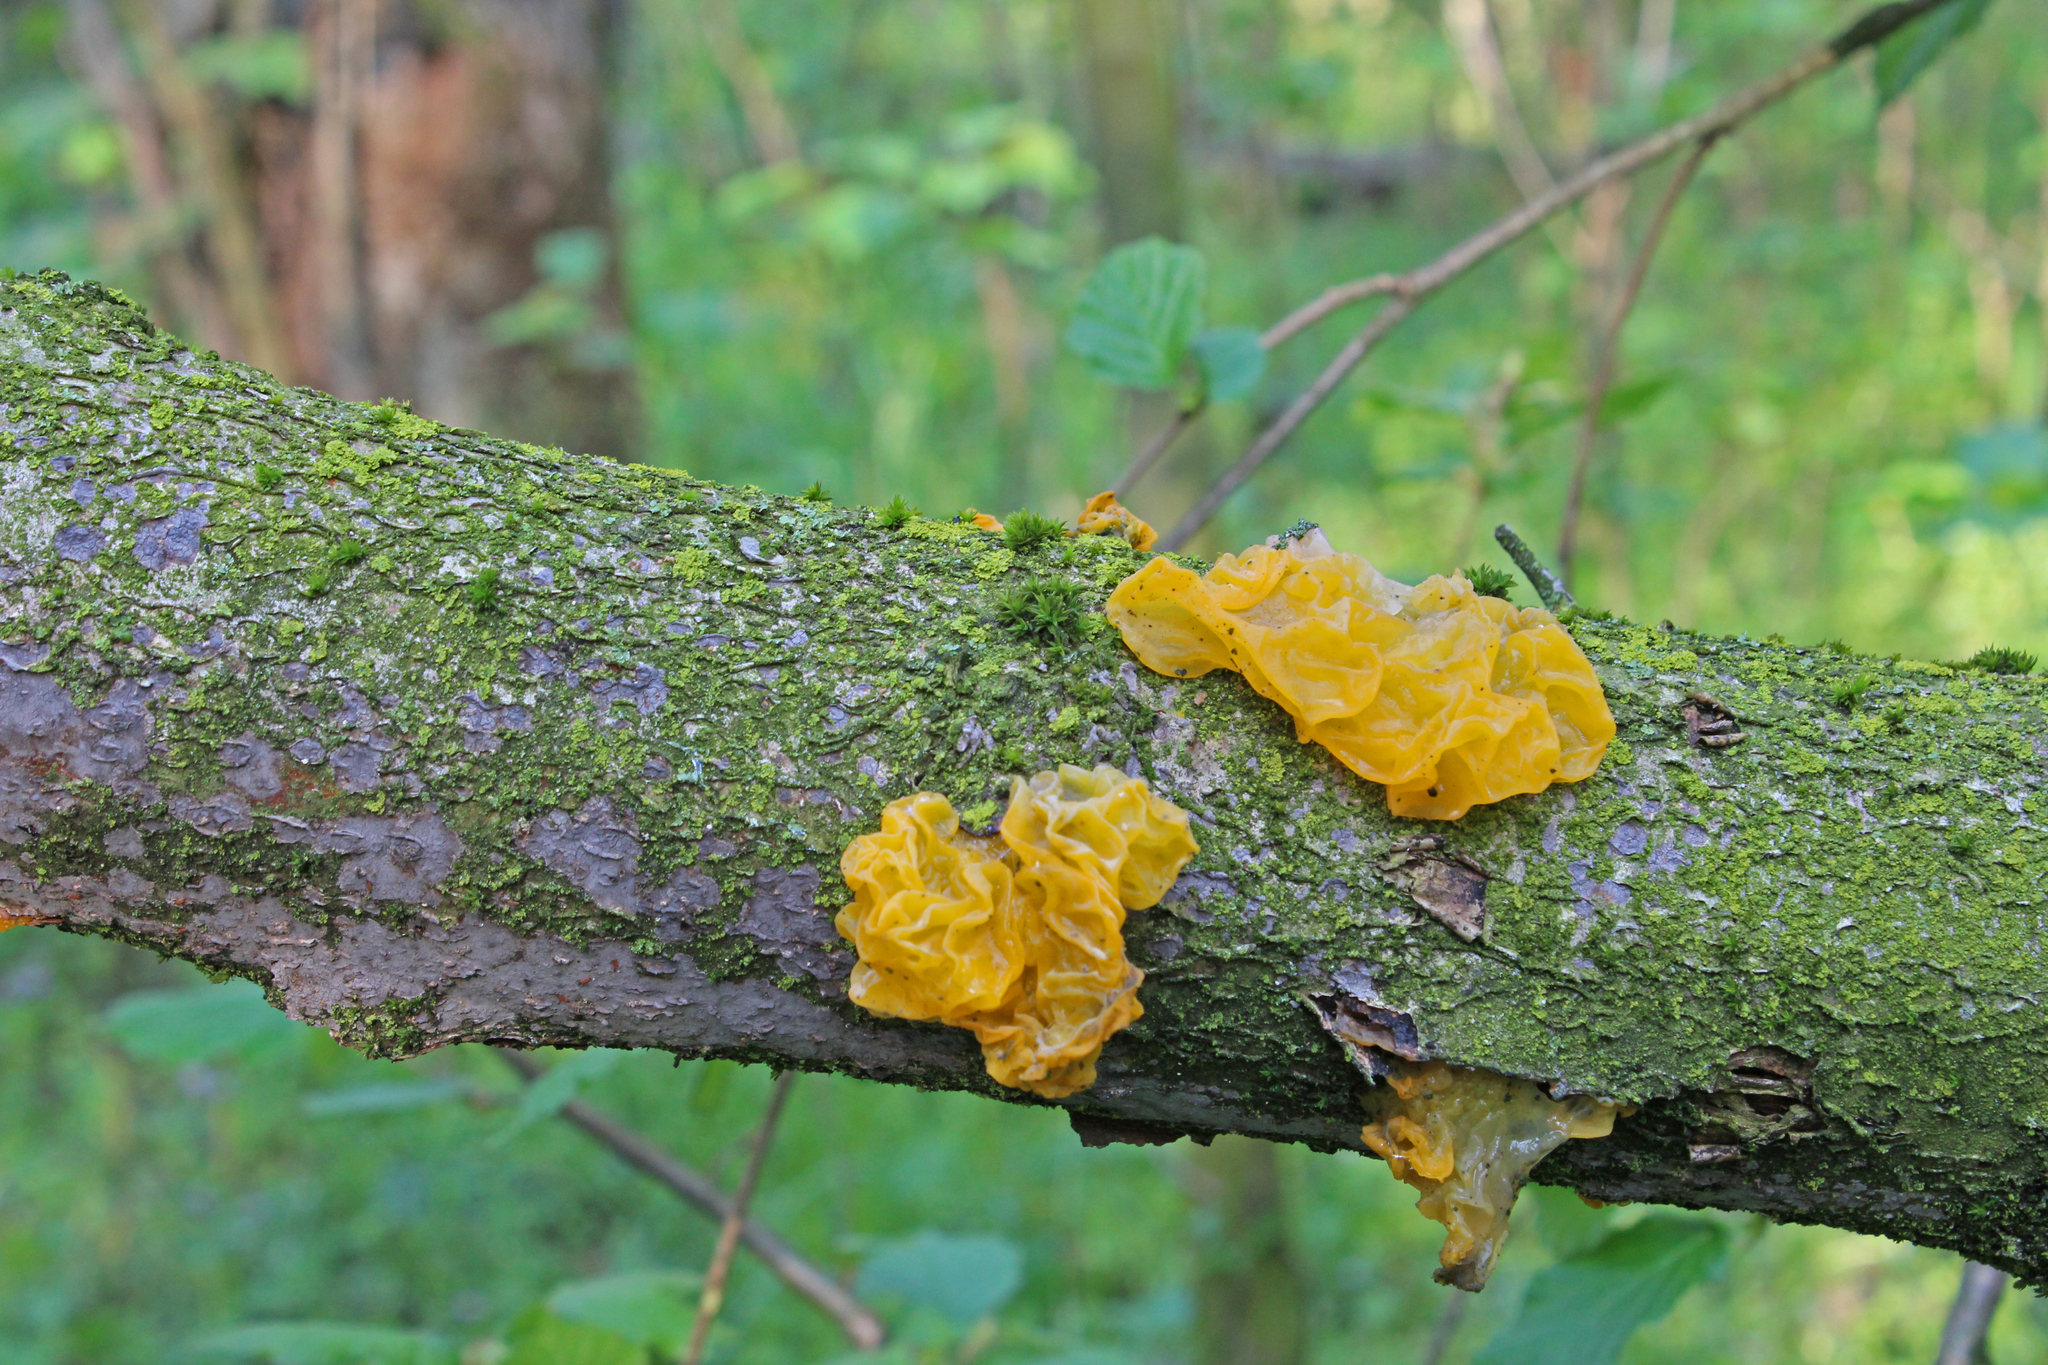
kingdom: Fungi
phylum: Basidiomycota
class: Tremellomycetes
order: Tremellales
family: Tremellaceae
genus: Tremella
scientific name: Tremella mesenterica
